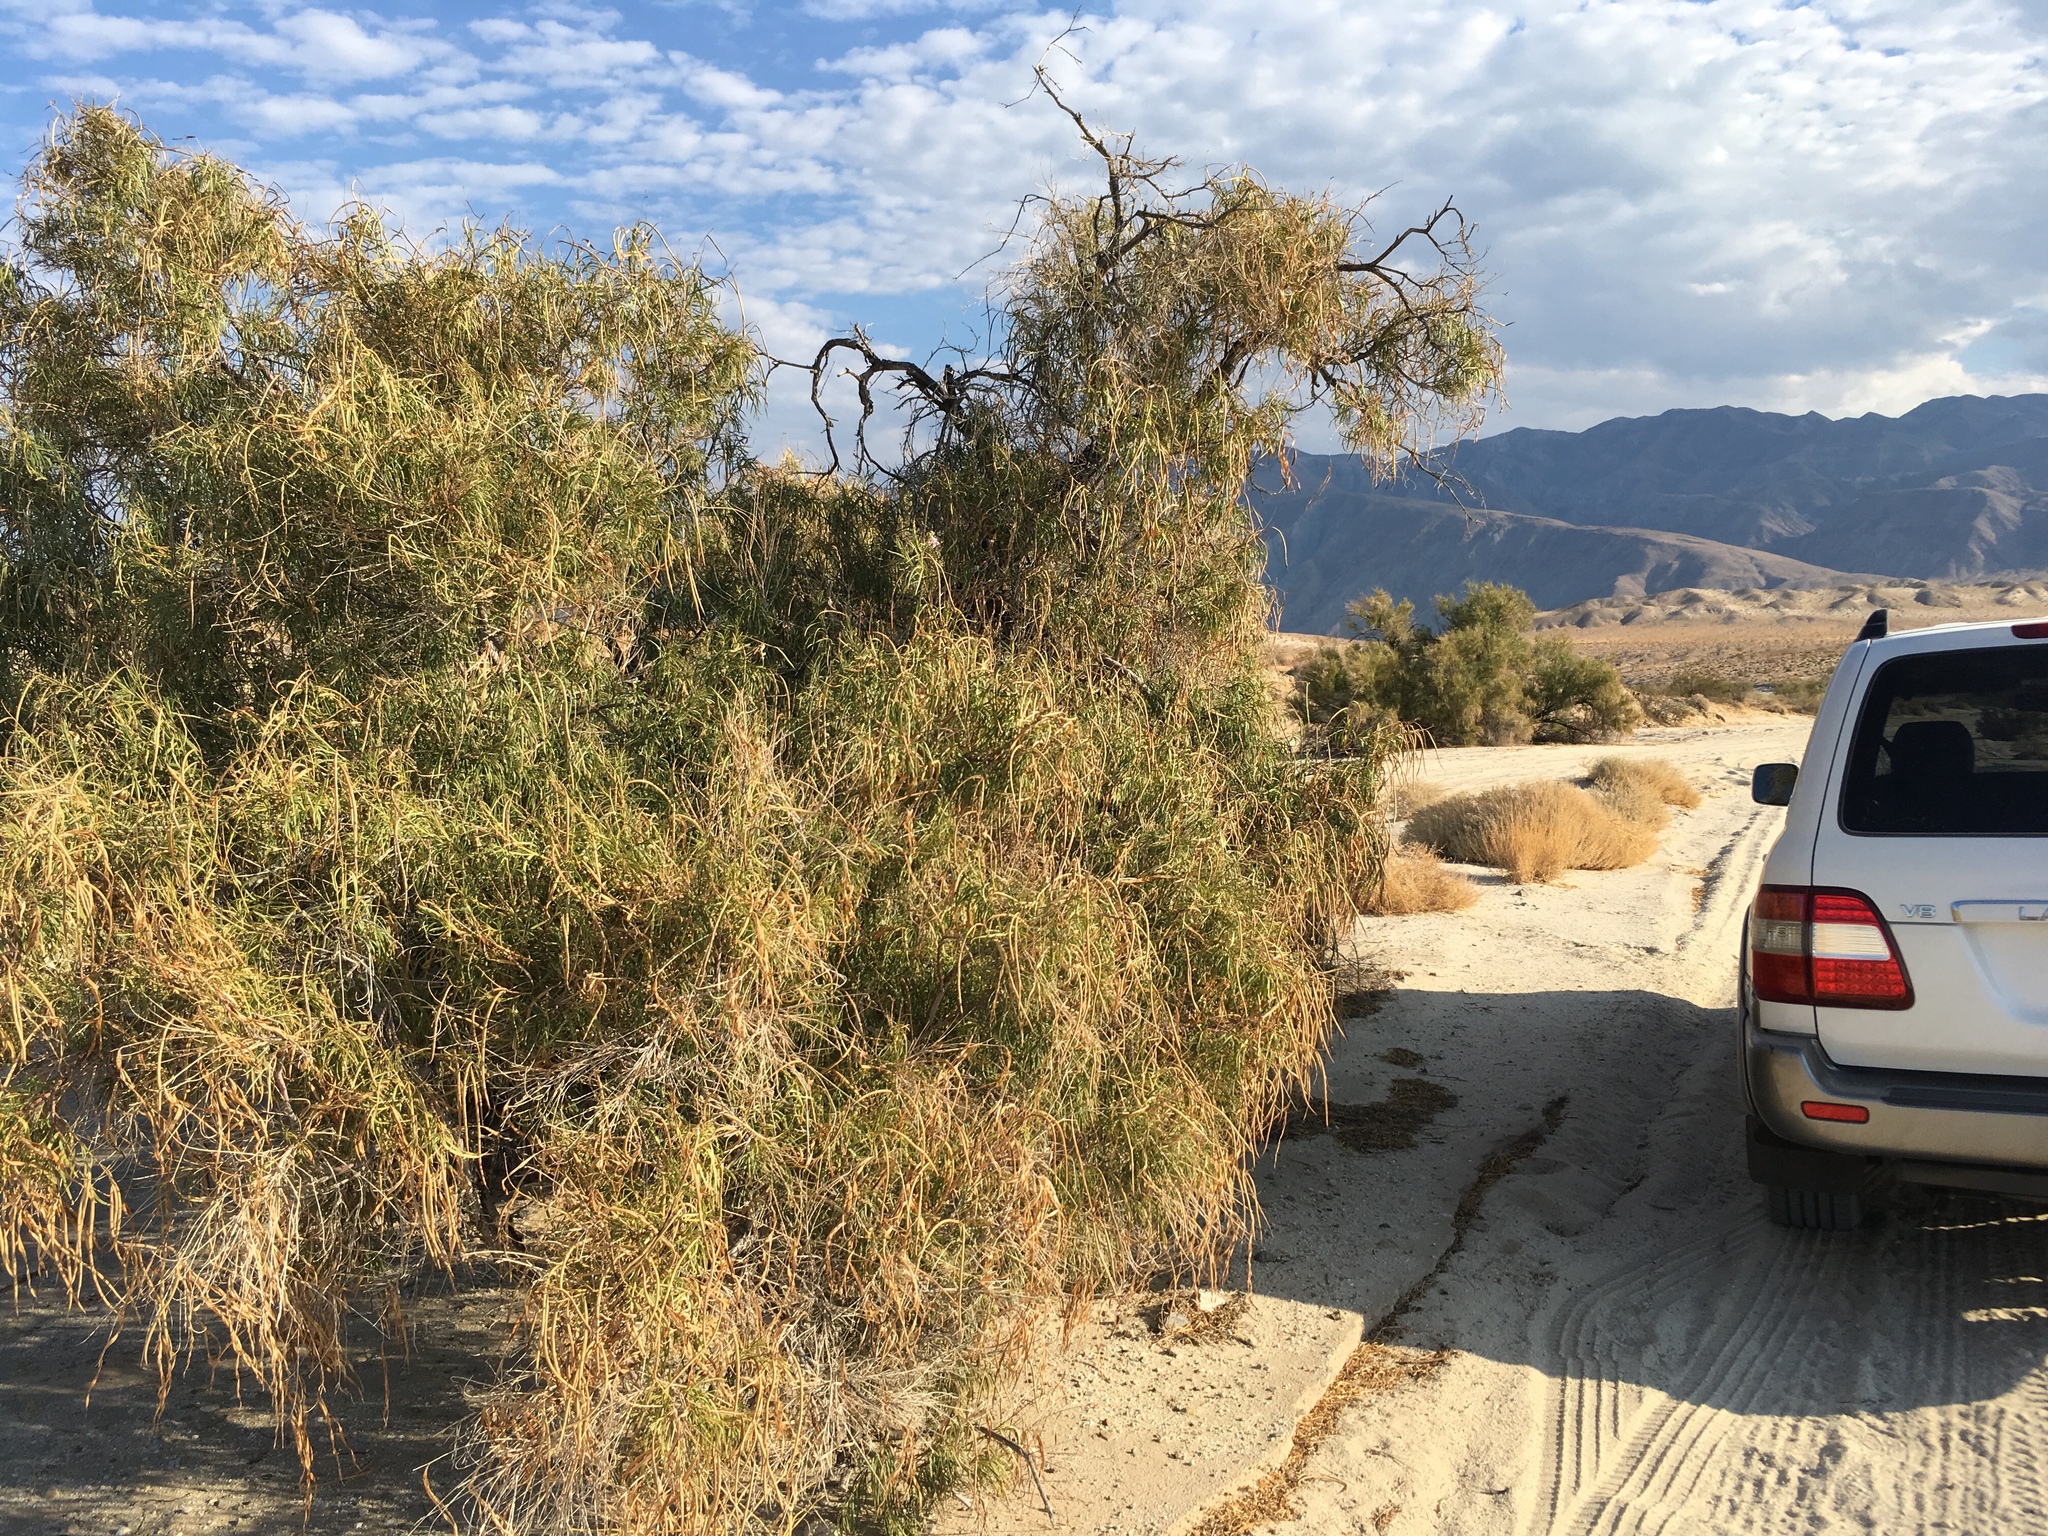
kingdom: Plantae
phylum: Tracheophyta
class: Magnoliopsida
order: Lamiales
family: Bignoniaceae
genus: Chilopsis
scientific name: Chilopsis linearis
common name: Desert-willow
